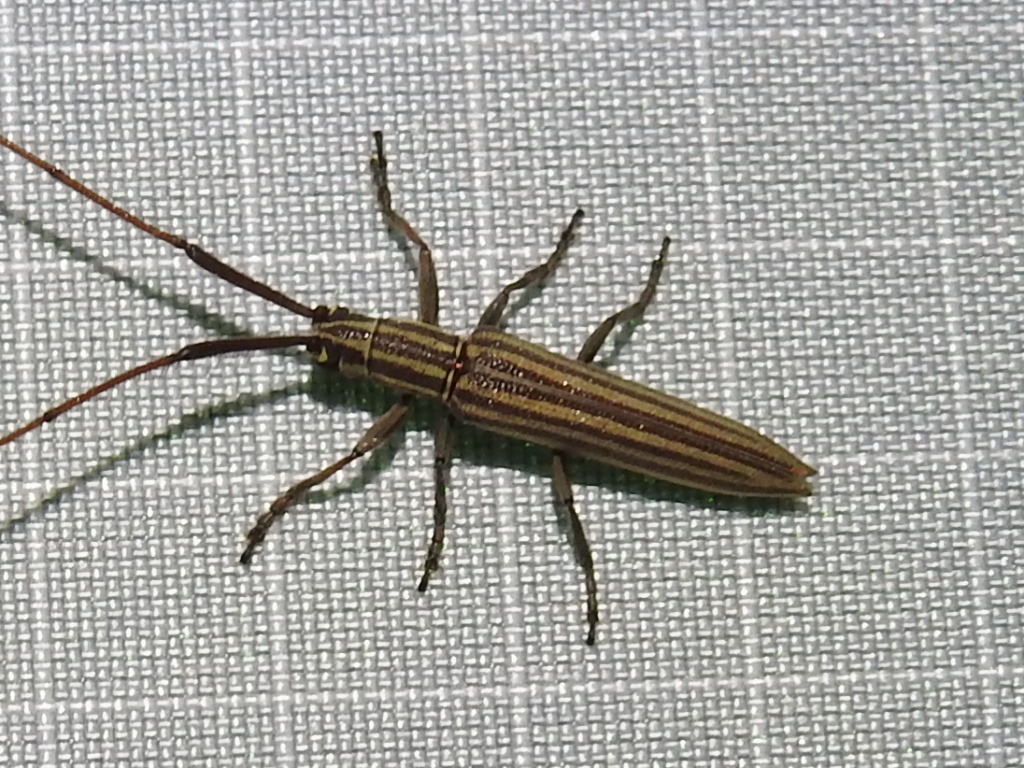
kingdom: Animalia
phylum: Arthropoda
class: Insecta
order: Coleoptera
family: Cerambycidae
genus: Hippopsis
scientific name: Hippopsis
